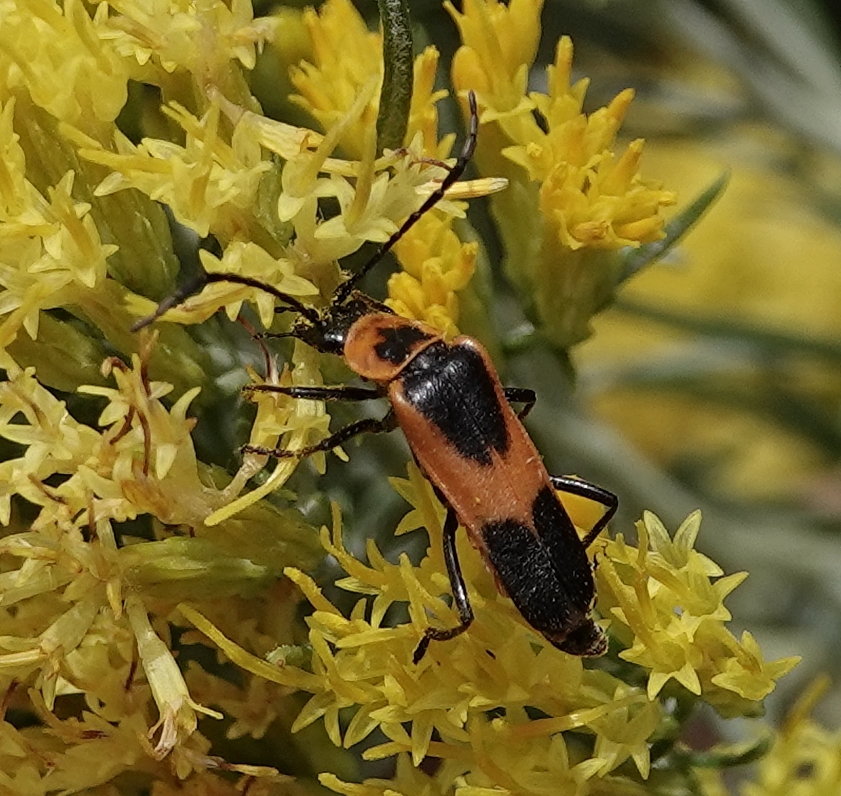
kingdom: Animalia
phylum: Arthropoda
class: Insecta
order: Coleoptera
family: Cantharidae
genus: Chauliognathus
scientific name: Chauliognathus basalis
